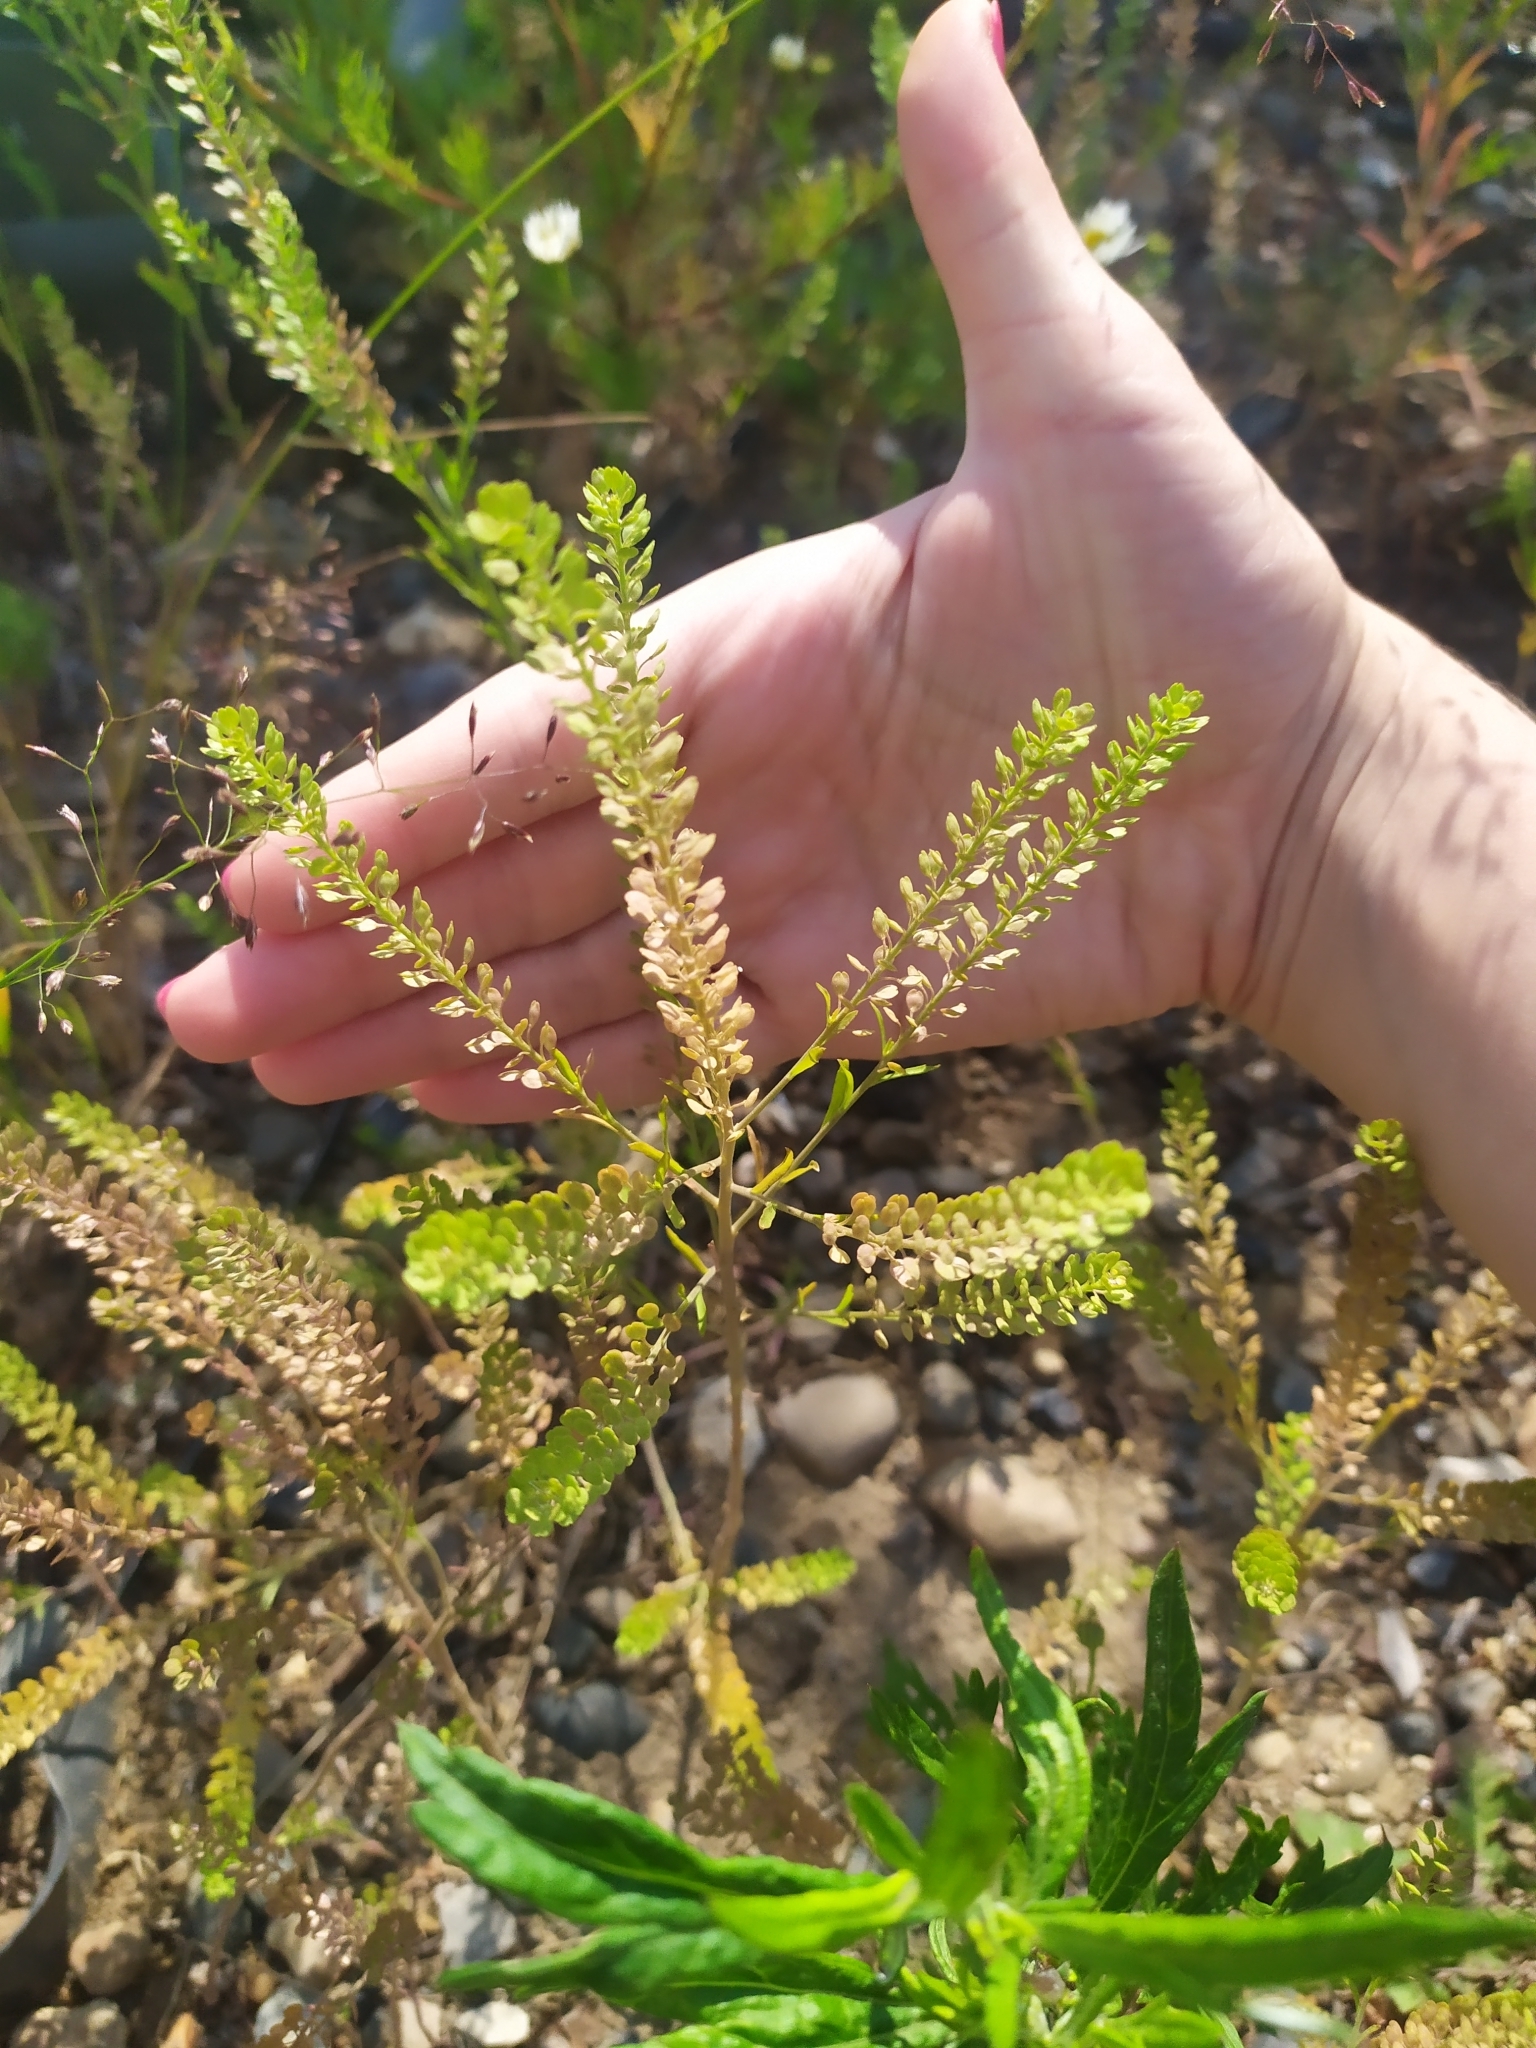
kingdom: Plantae
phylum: Tracheophyta
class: Magnoliopsida
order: Brassicales
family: Brassicaceae
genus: Lepidium
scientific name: Lepidium densiflorum
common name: Miner's pepperwort
